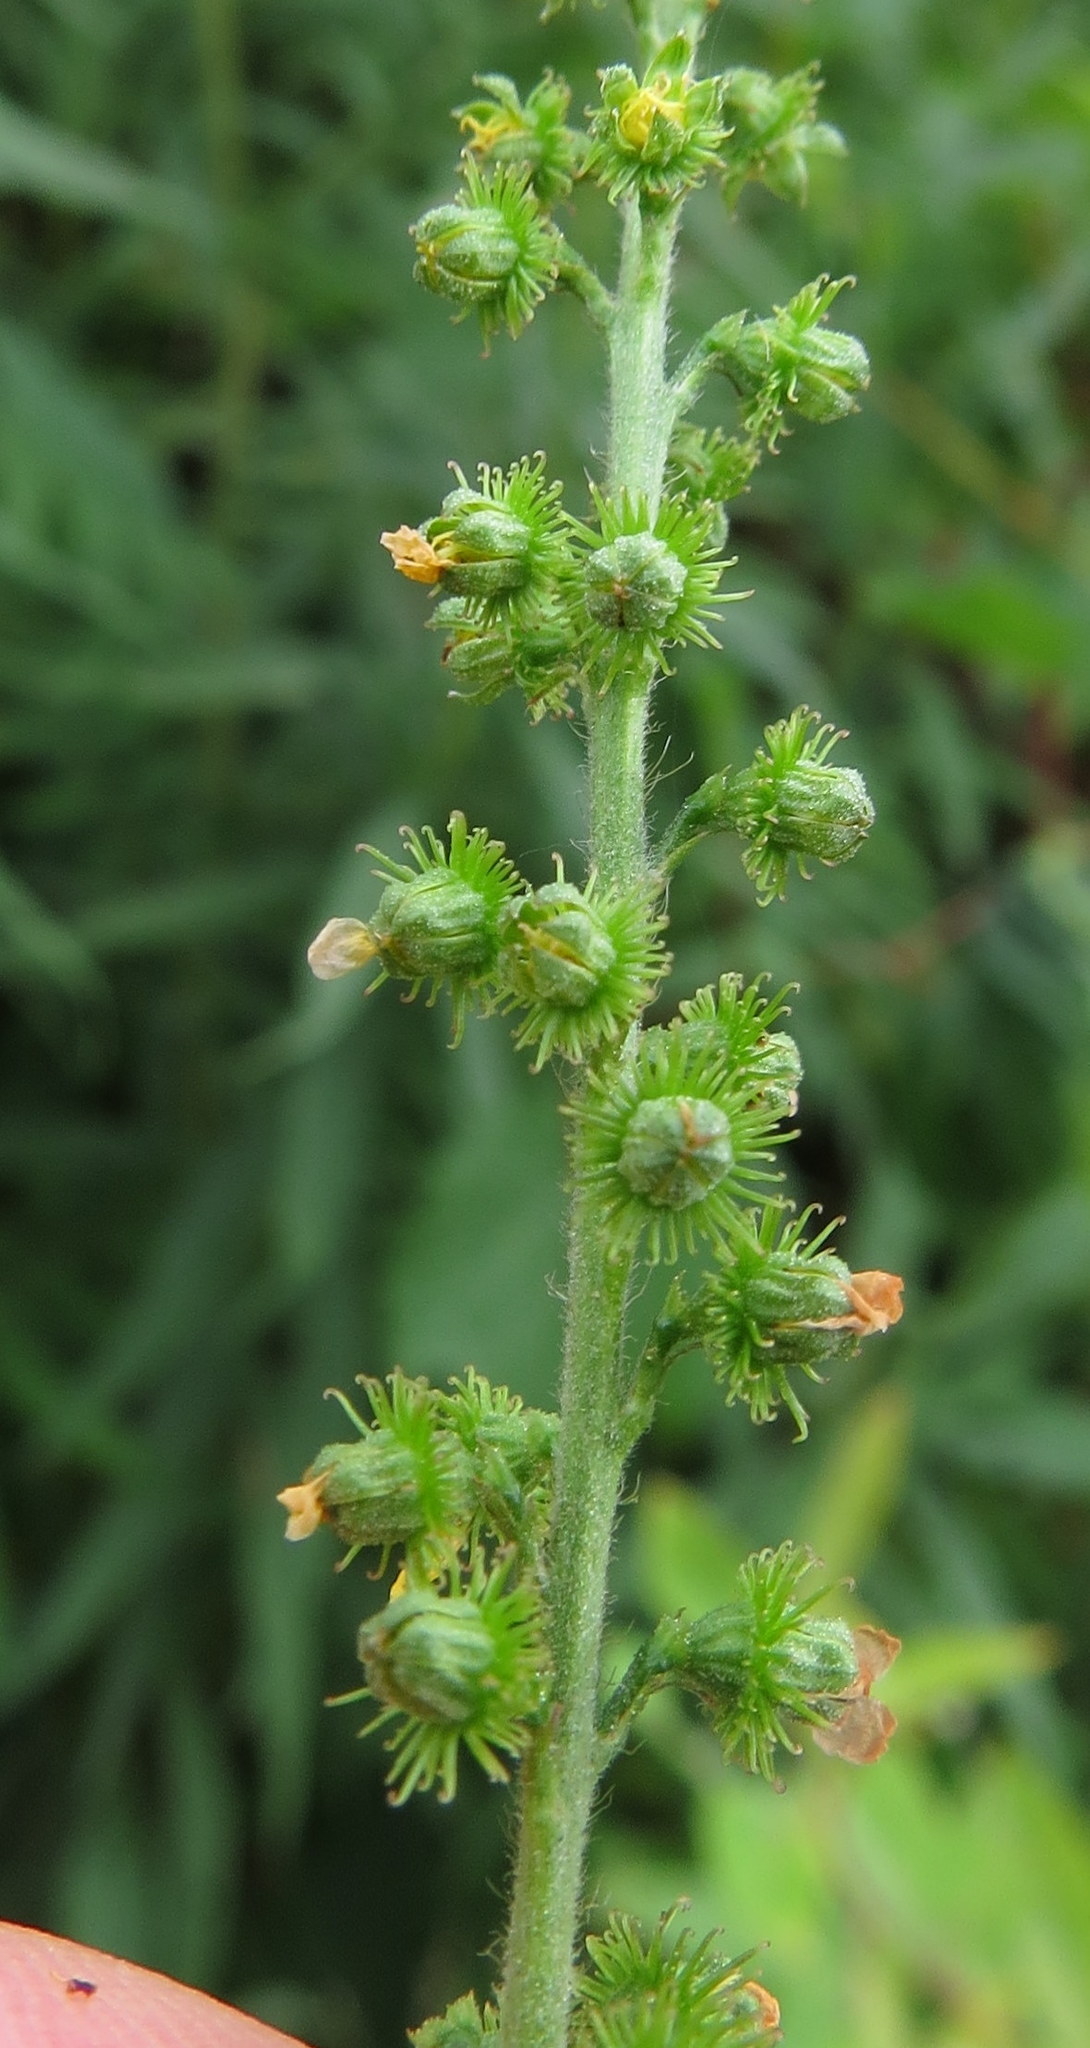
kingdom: Plantae
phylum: Tracheophyta
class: Magnoliopsida
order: Rosales
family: Rosaceae
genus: Agrimonia
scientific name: Agrimonia parviflora
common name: Harvest-lice
